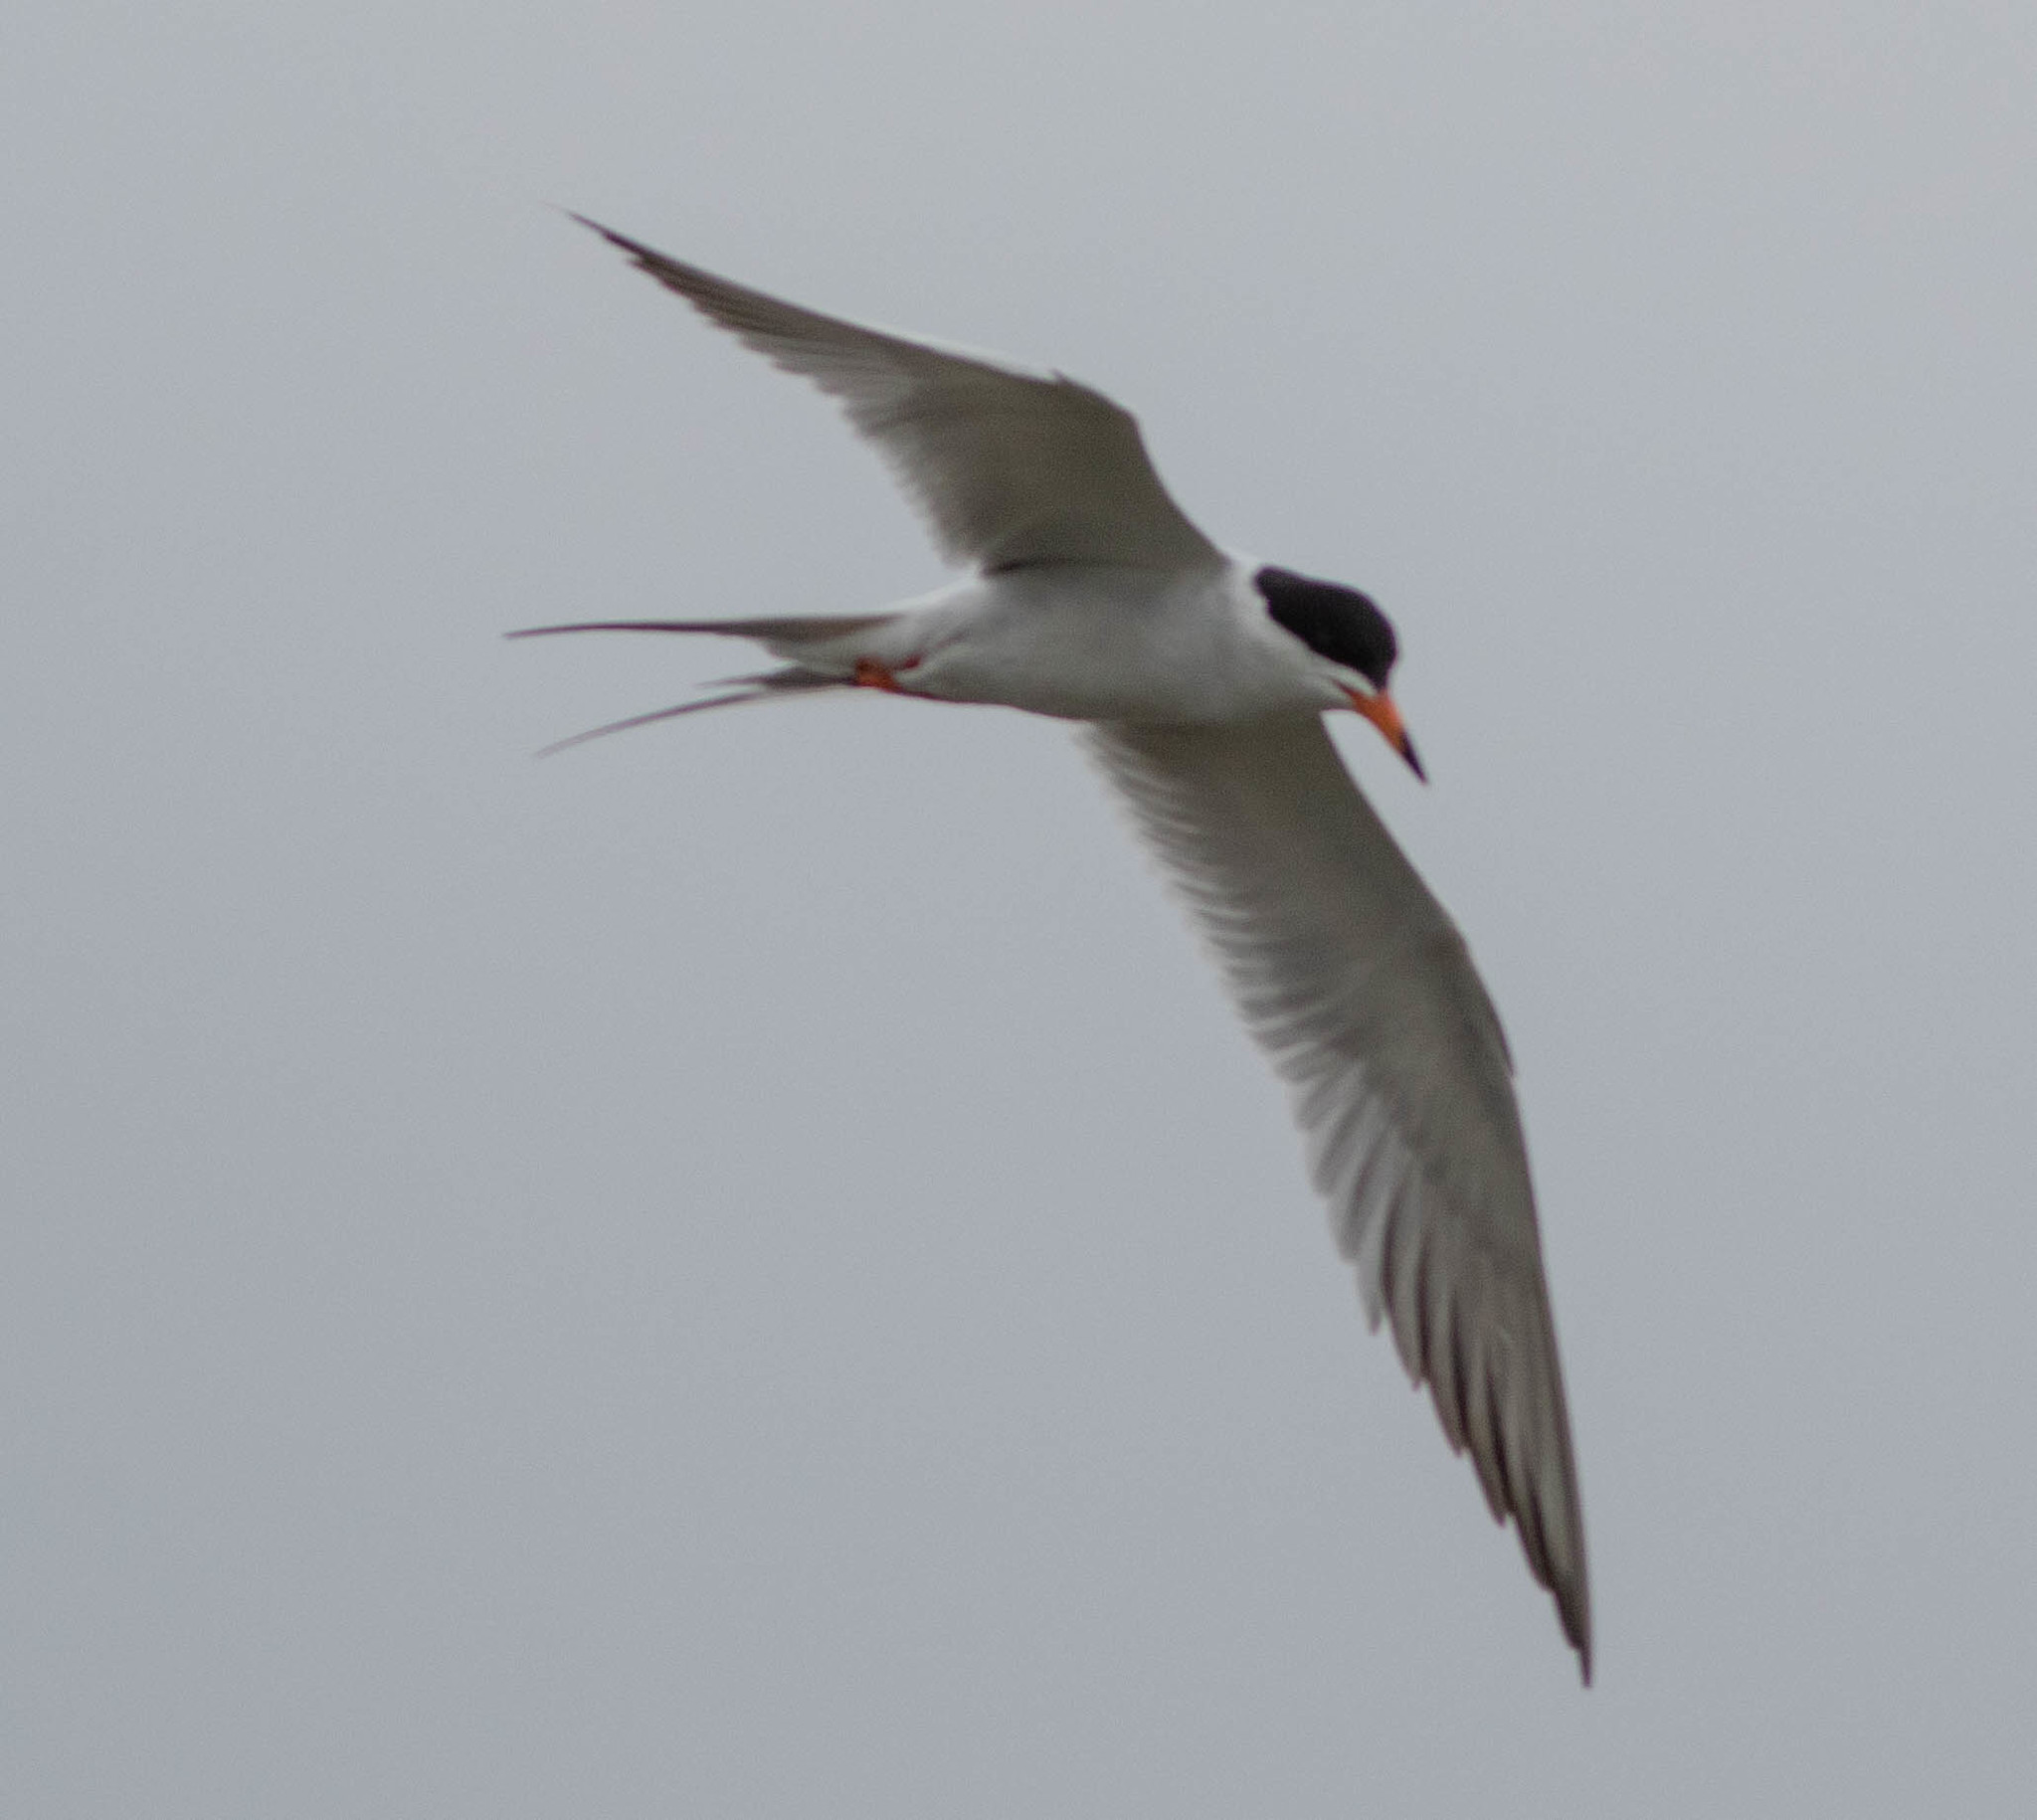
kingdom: Animalia
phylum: Chordata
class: Aves
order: Charadriiformes
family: Laridae
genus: Sterna
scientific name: Sterna forsteri
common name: Forster's tern
